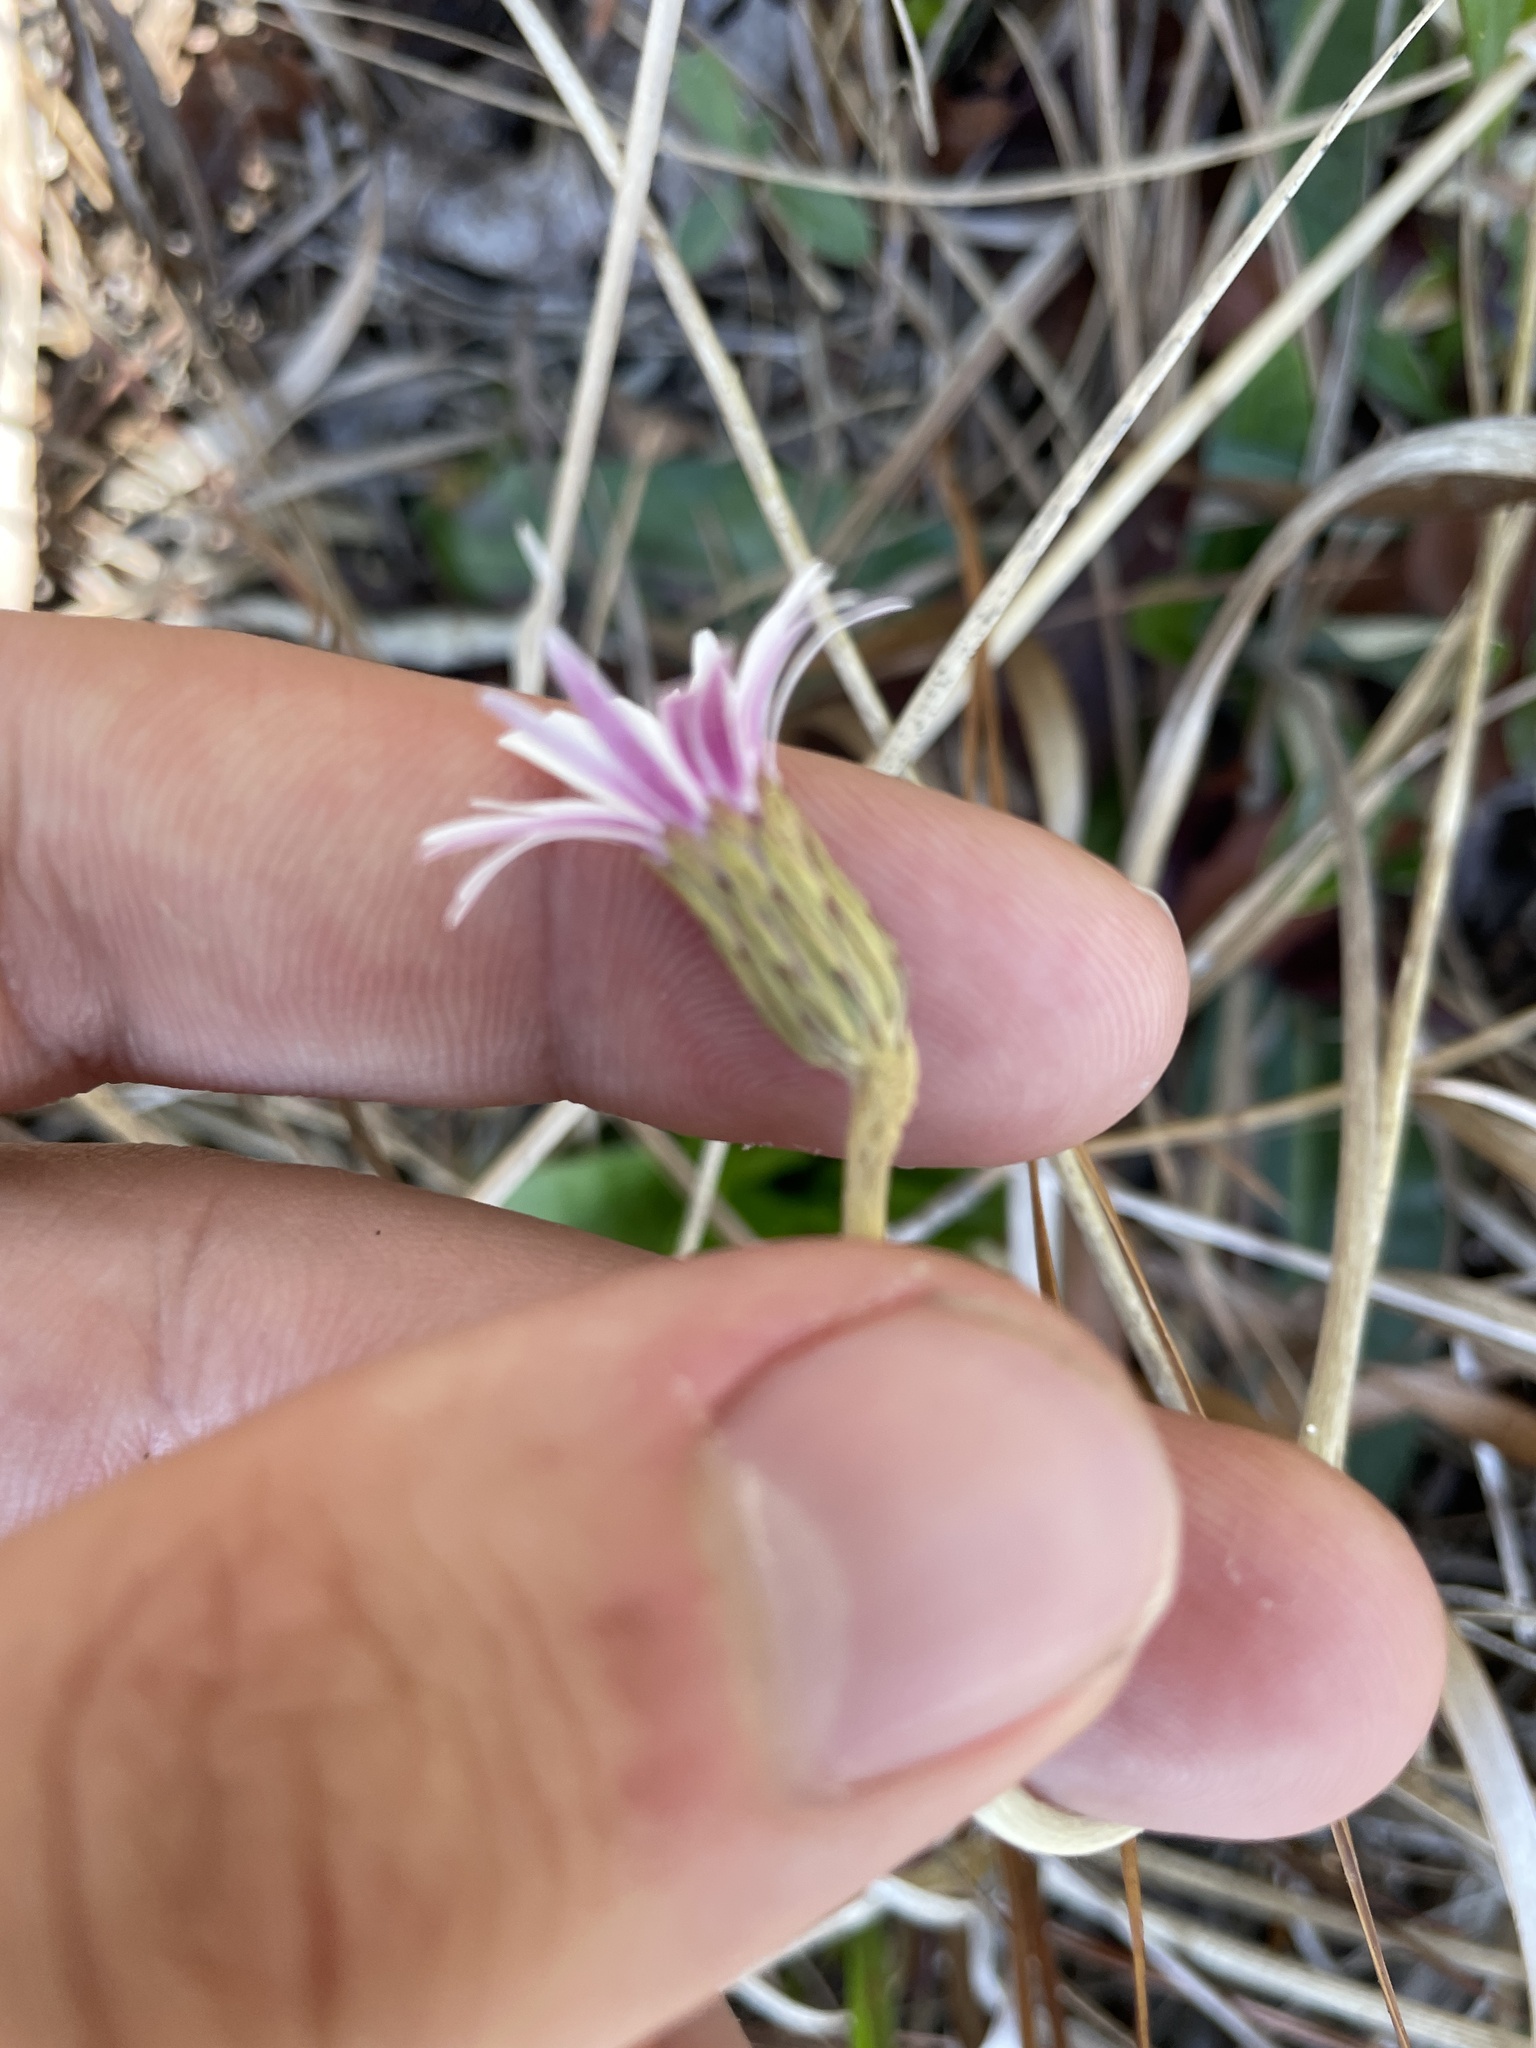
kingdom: Plantae
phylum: Tracheophyta
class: Magnoliopsida
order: Asterales
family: Asteraceae
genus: Chaptalia
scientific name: Chaptalia tomentosa
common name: Woolly sunbonnet
